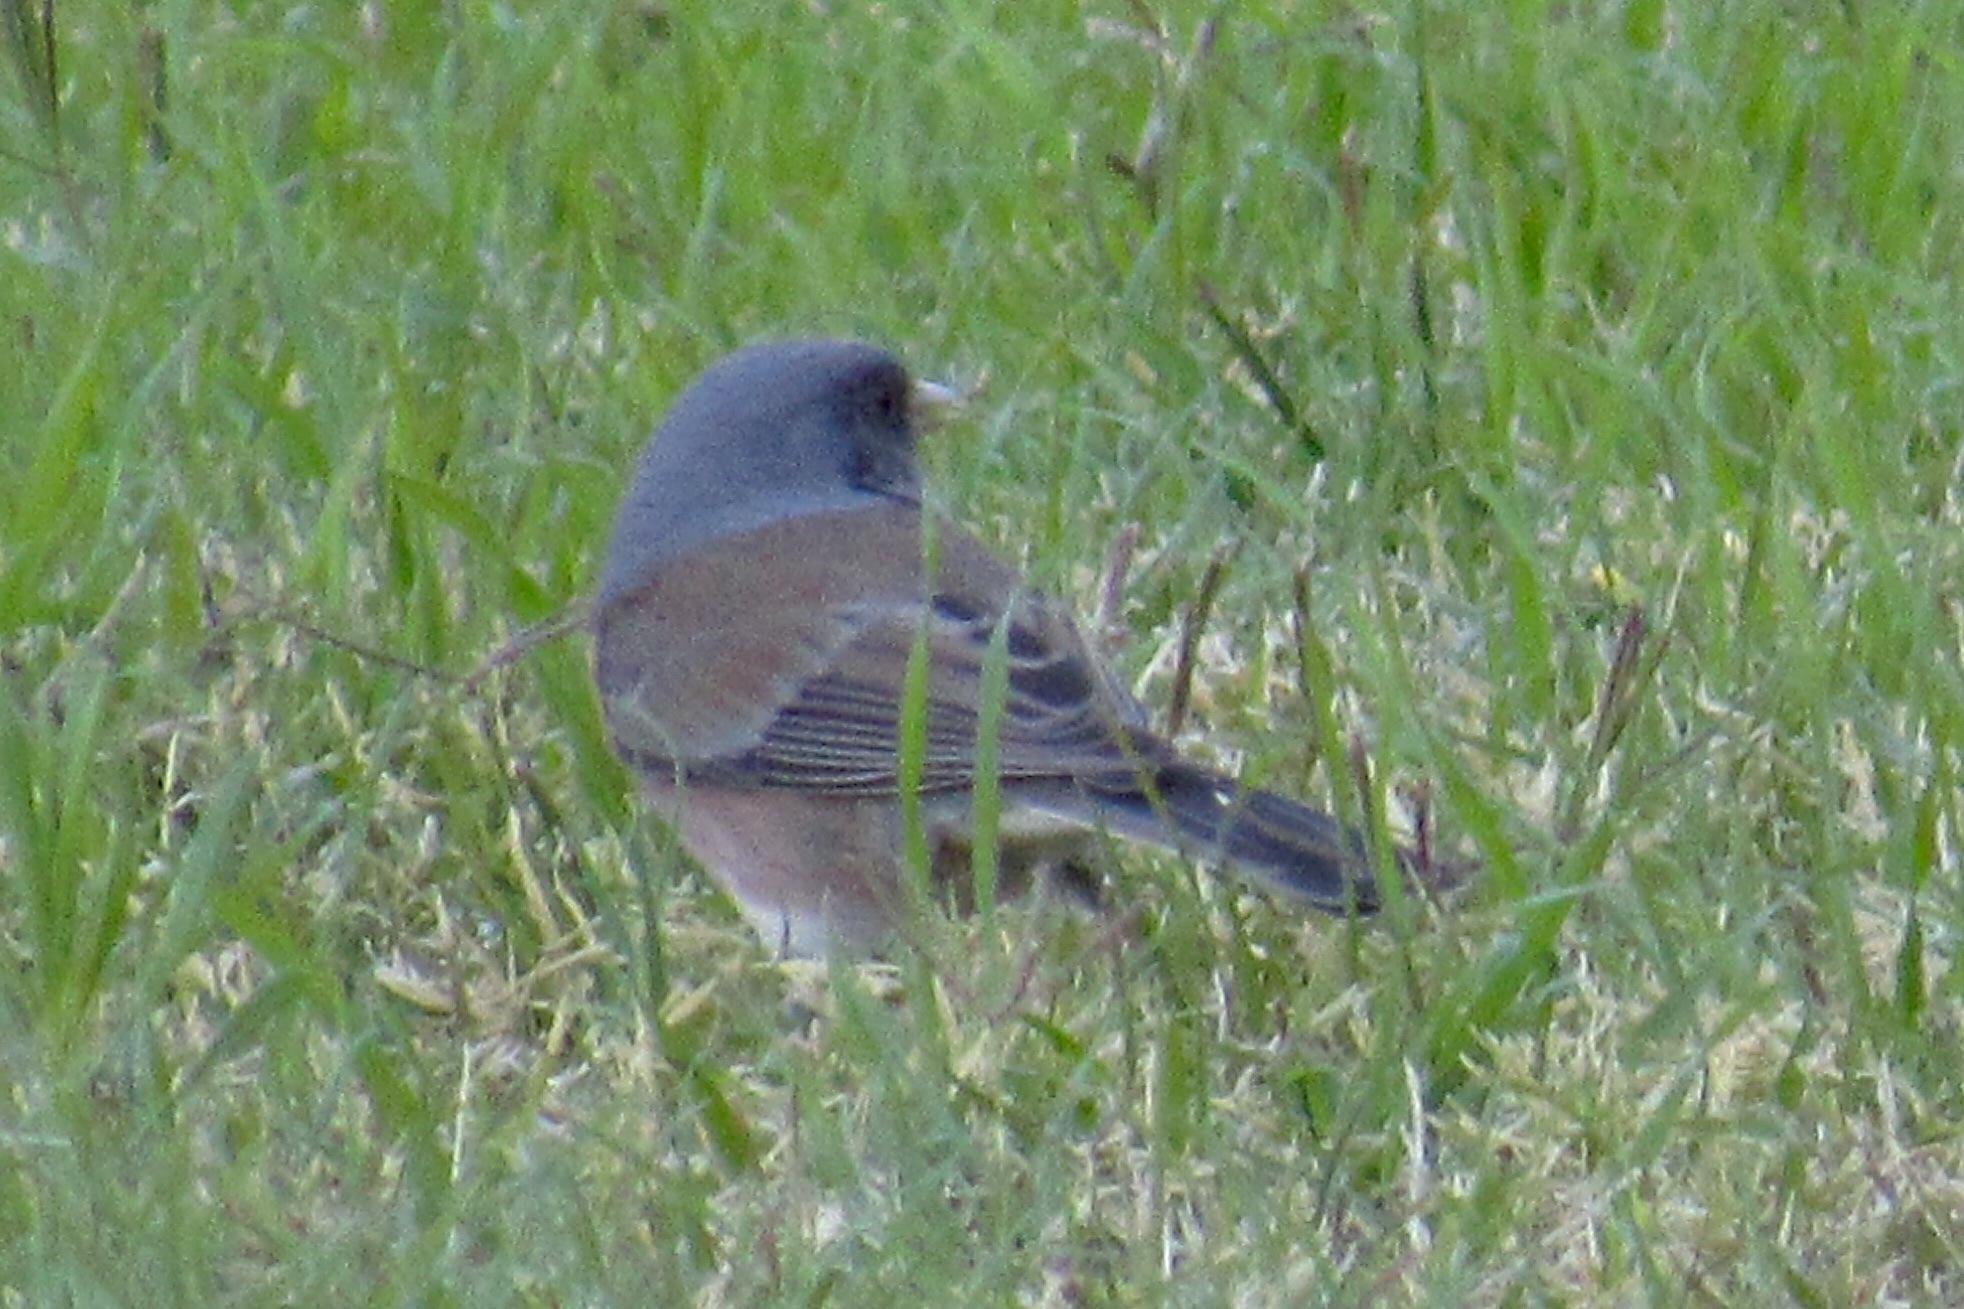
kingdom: Animalia
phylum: Chordata
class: Aves
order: Passeriformes
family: Passerellidae
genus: Junco
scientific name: Junco hyemalis
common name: Dark-eyed junco
